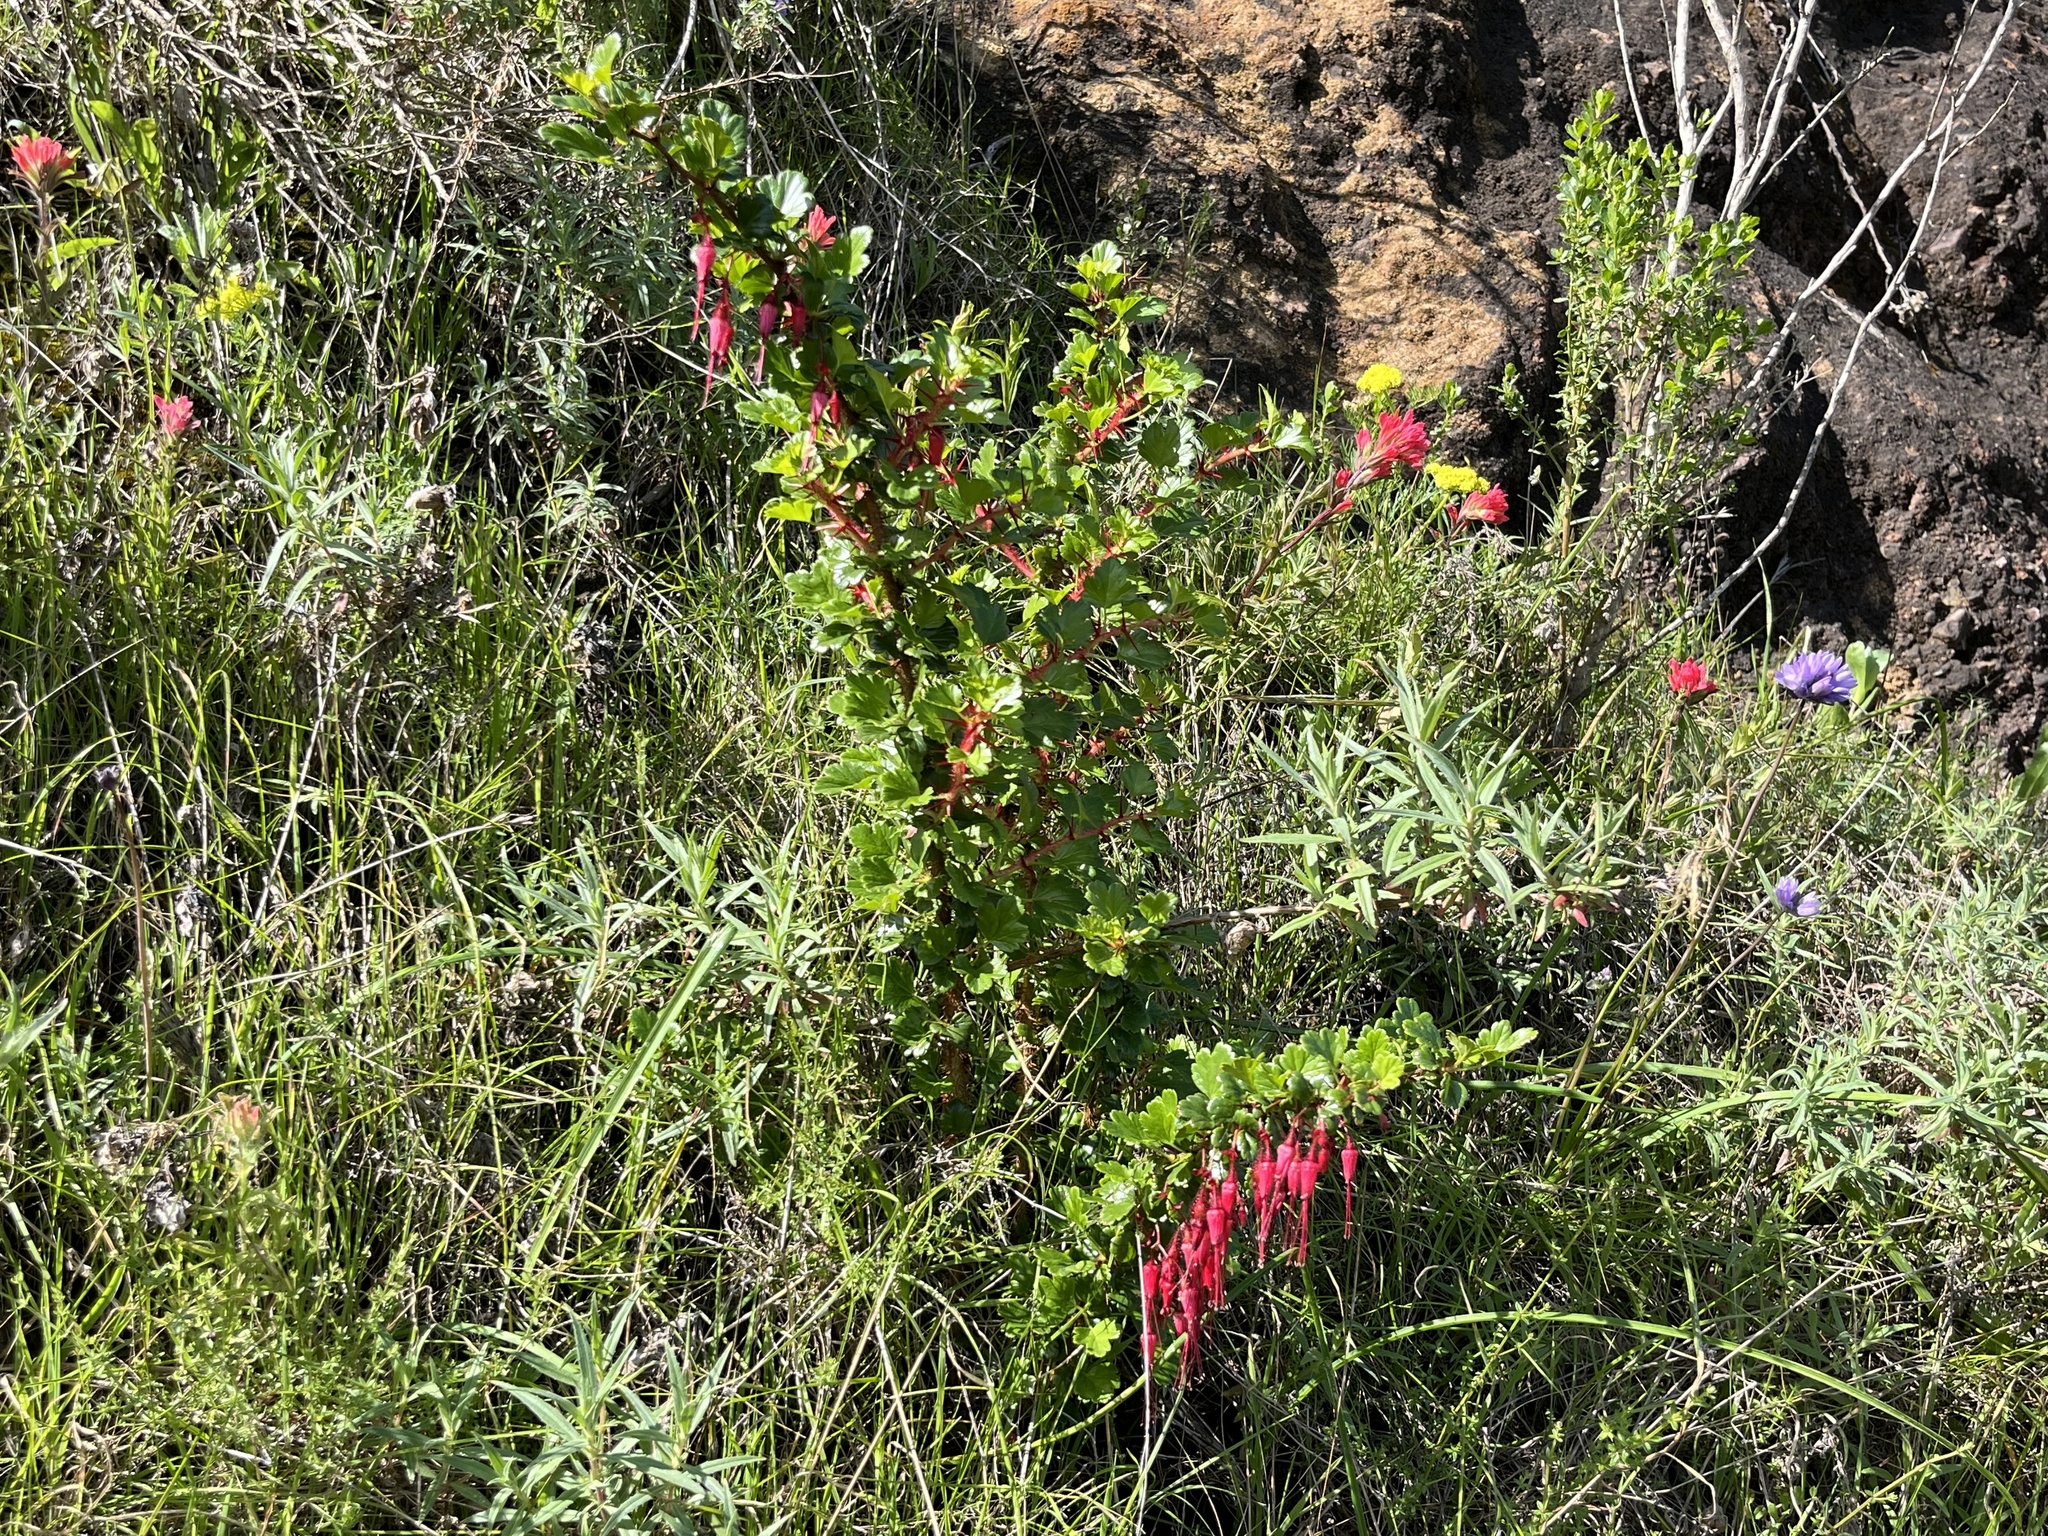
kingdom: Plantae
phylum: Tracheophyta
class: Magnoliopsida
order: Saxifragales
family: Grossulariaceae
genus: Ribes
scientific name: Ribes speciosum
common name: Fuchsia-flower gooseberry
